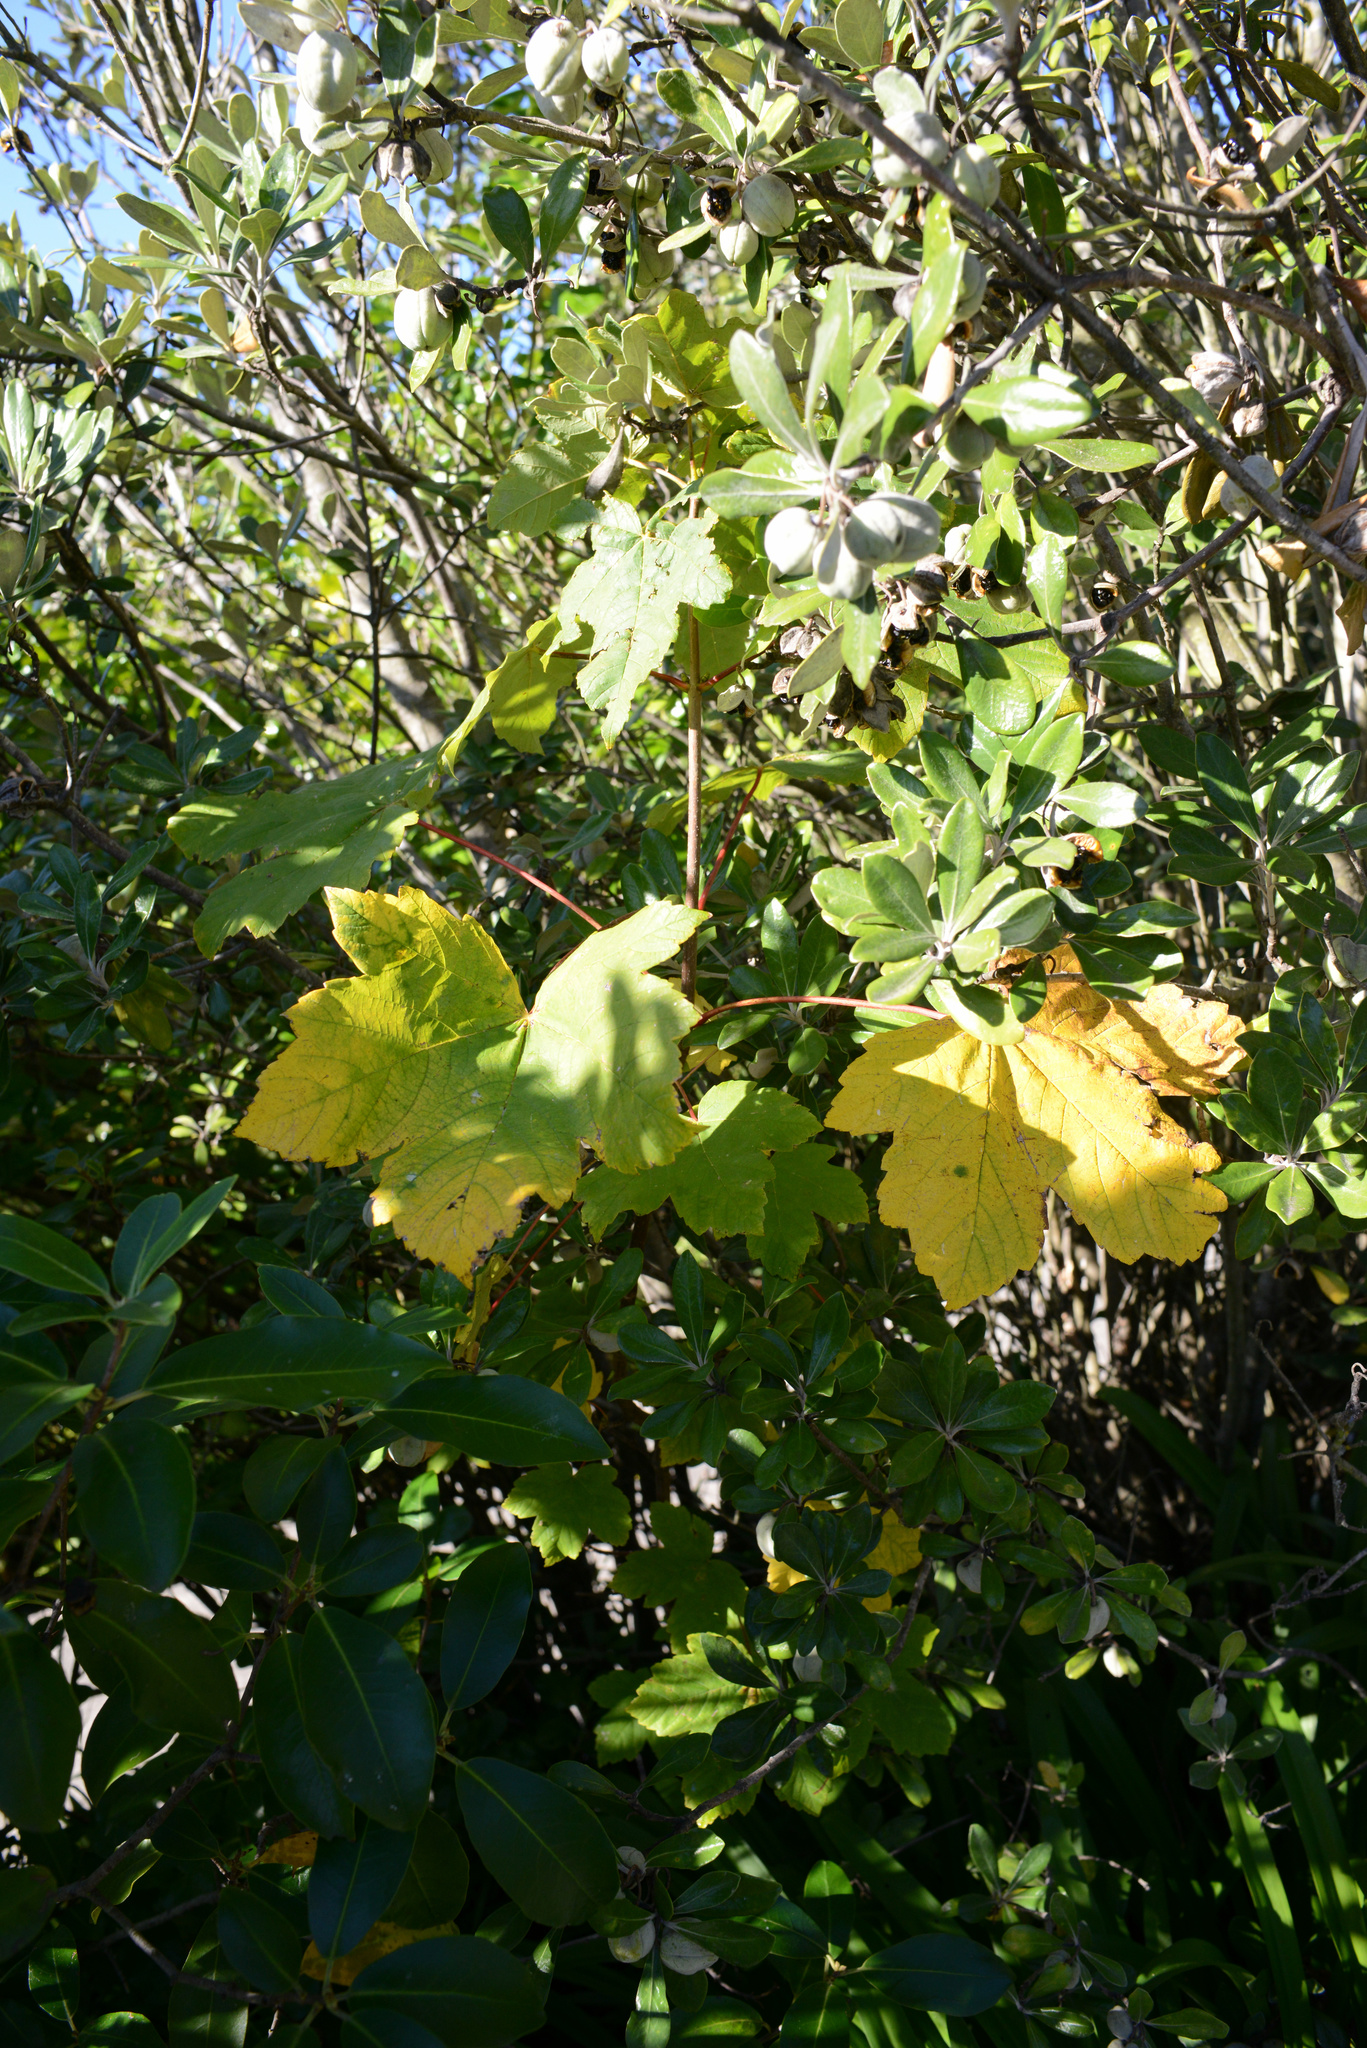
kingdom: Plantae
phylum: Tracheophyta
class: Magnoliopsida
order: Sapindales
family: Sapindaceae
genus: Acer
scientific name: Acer pseudoplatanus
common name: Sycamore
